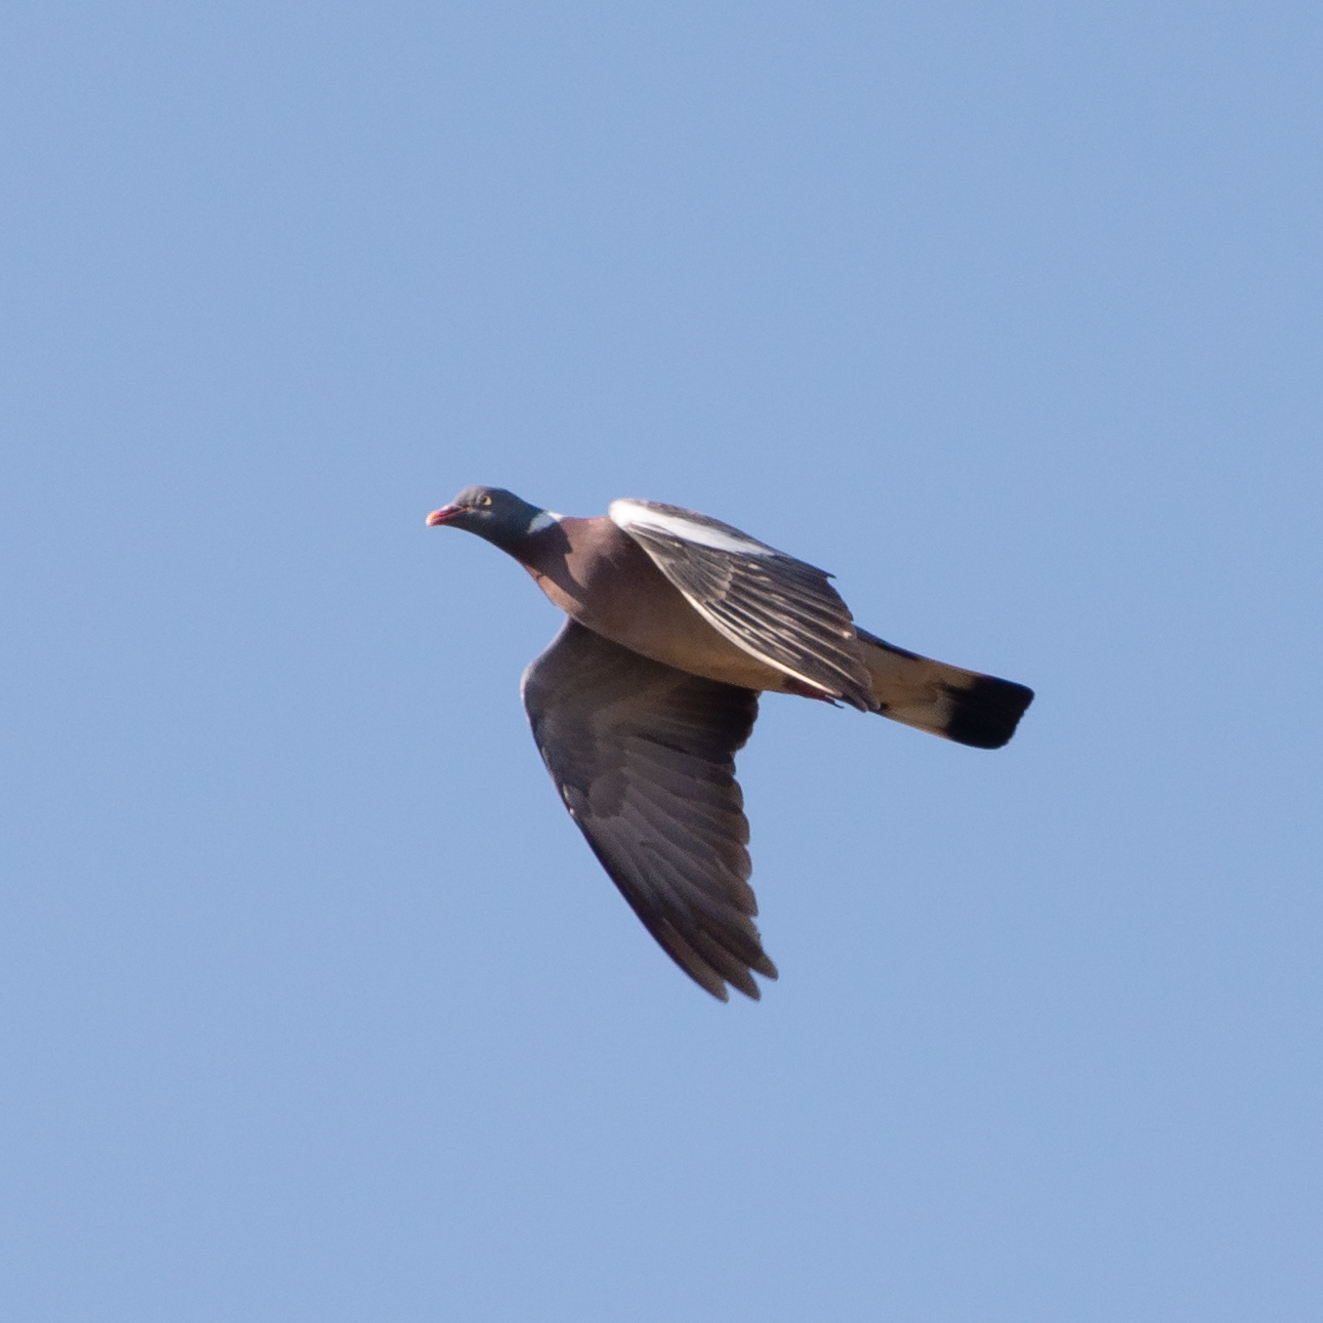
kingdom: Animalia
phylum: Chordata
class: Aves
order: Columbiformes
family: Columbidae
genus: Columba
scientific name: Columba palumbus
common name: Common wood pigeon
